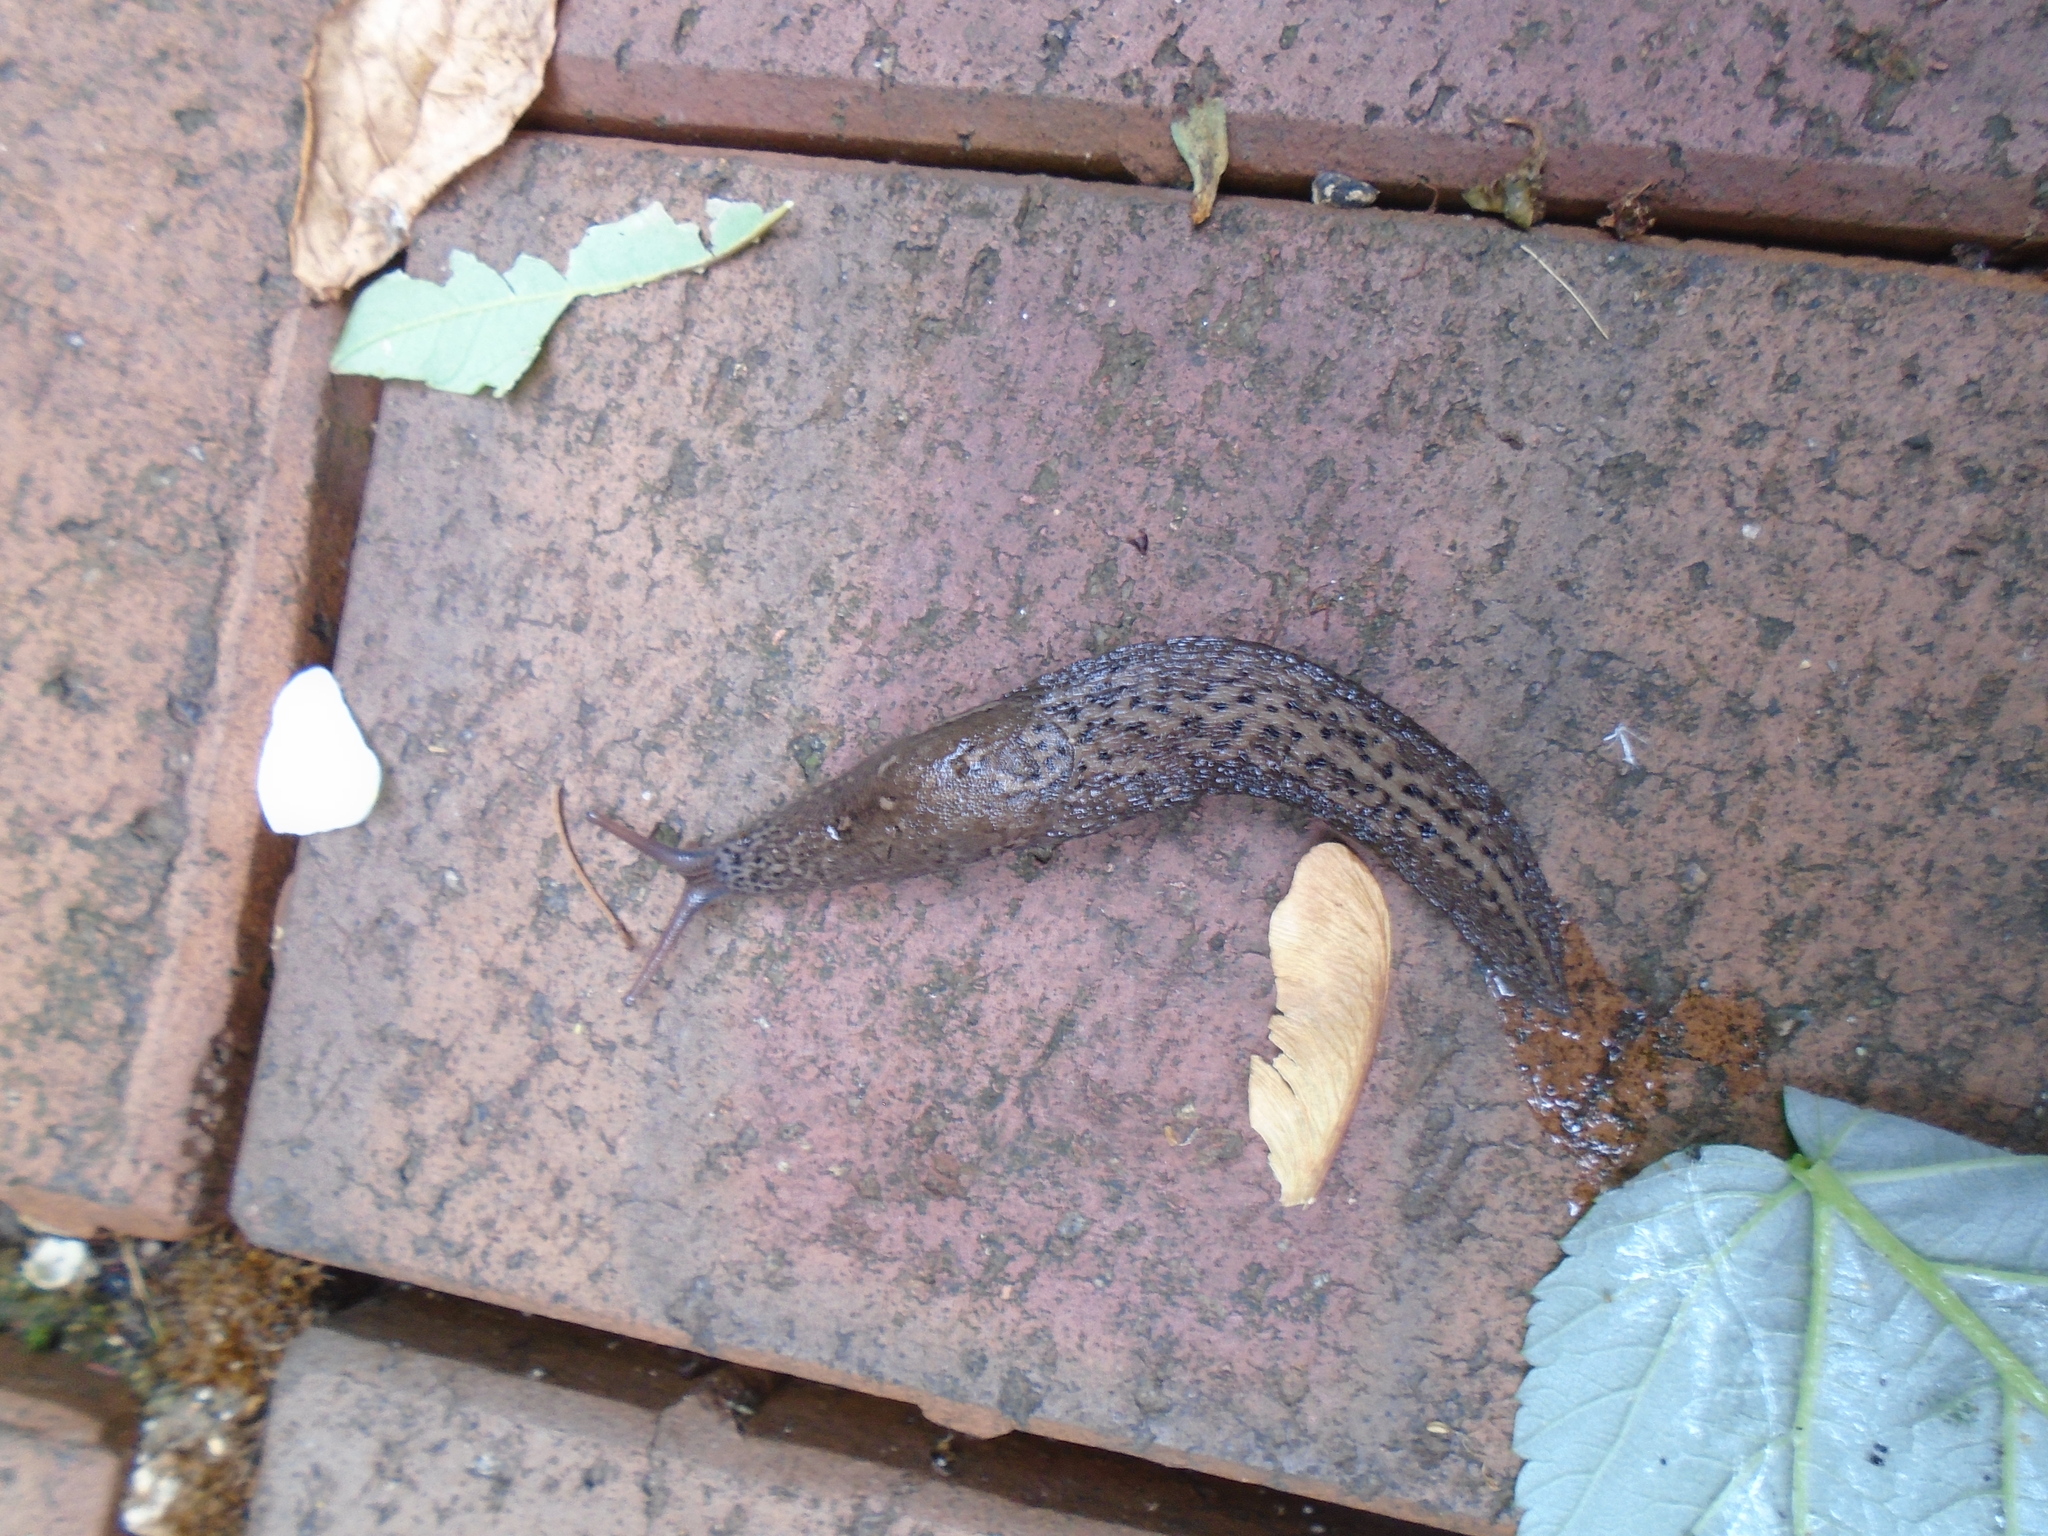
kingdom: Animalia
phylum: Mollusca
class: Gastropoda
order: Stylommatophora
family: Limacidae
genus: Limax
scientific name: Limax maximus
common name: Great grey slug
